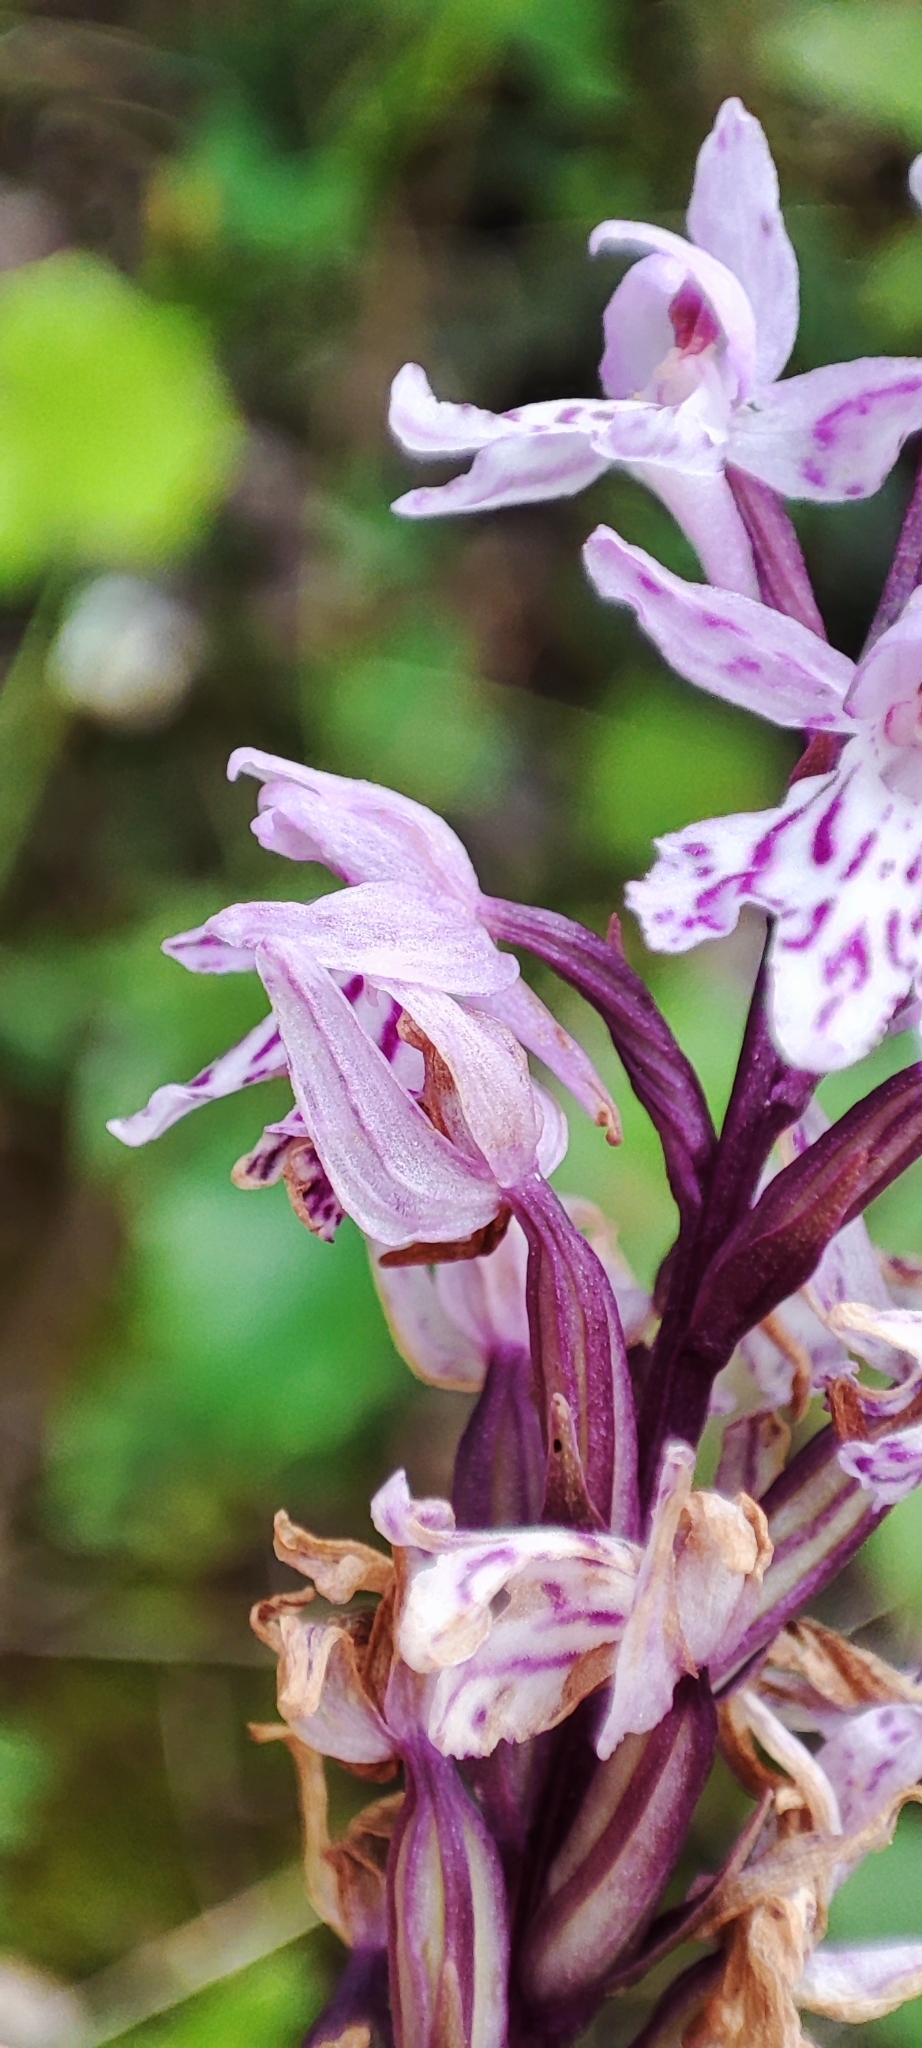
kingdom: Plantae
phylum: Tracheophyta
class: Liliopsida
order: Asparagales
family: Orchidaceae
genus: Dactylorhiza
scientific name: Dactylorhiza maculata
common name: Heath spotted-orchid
